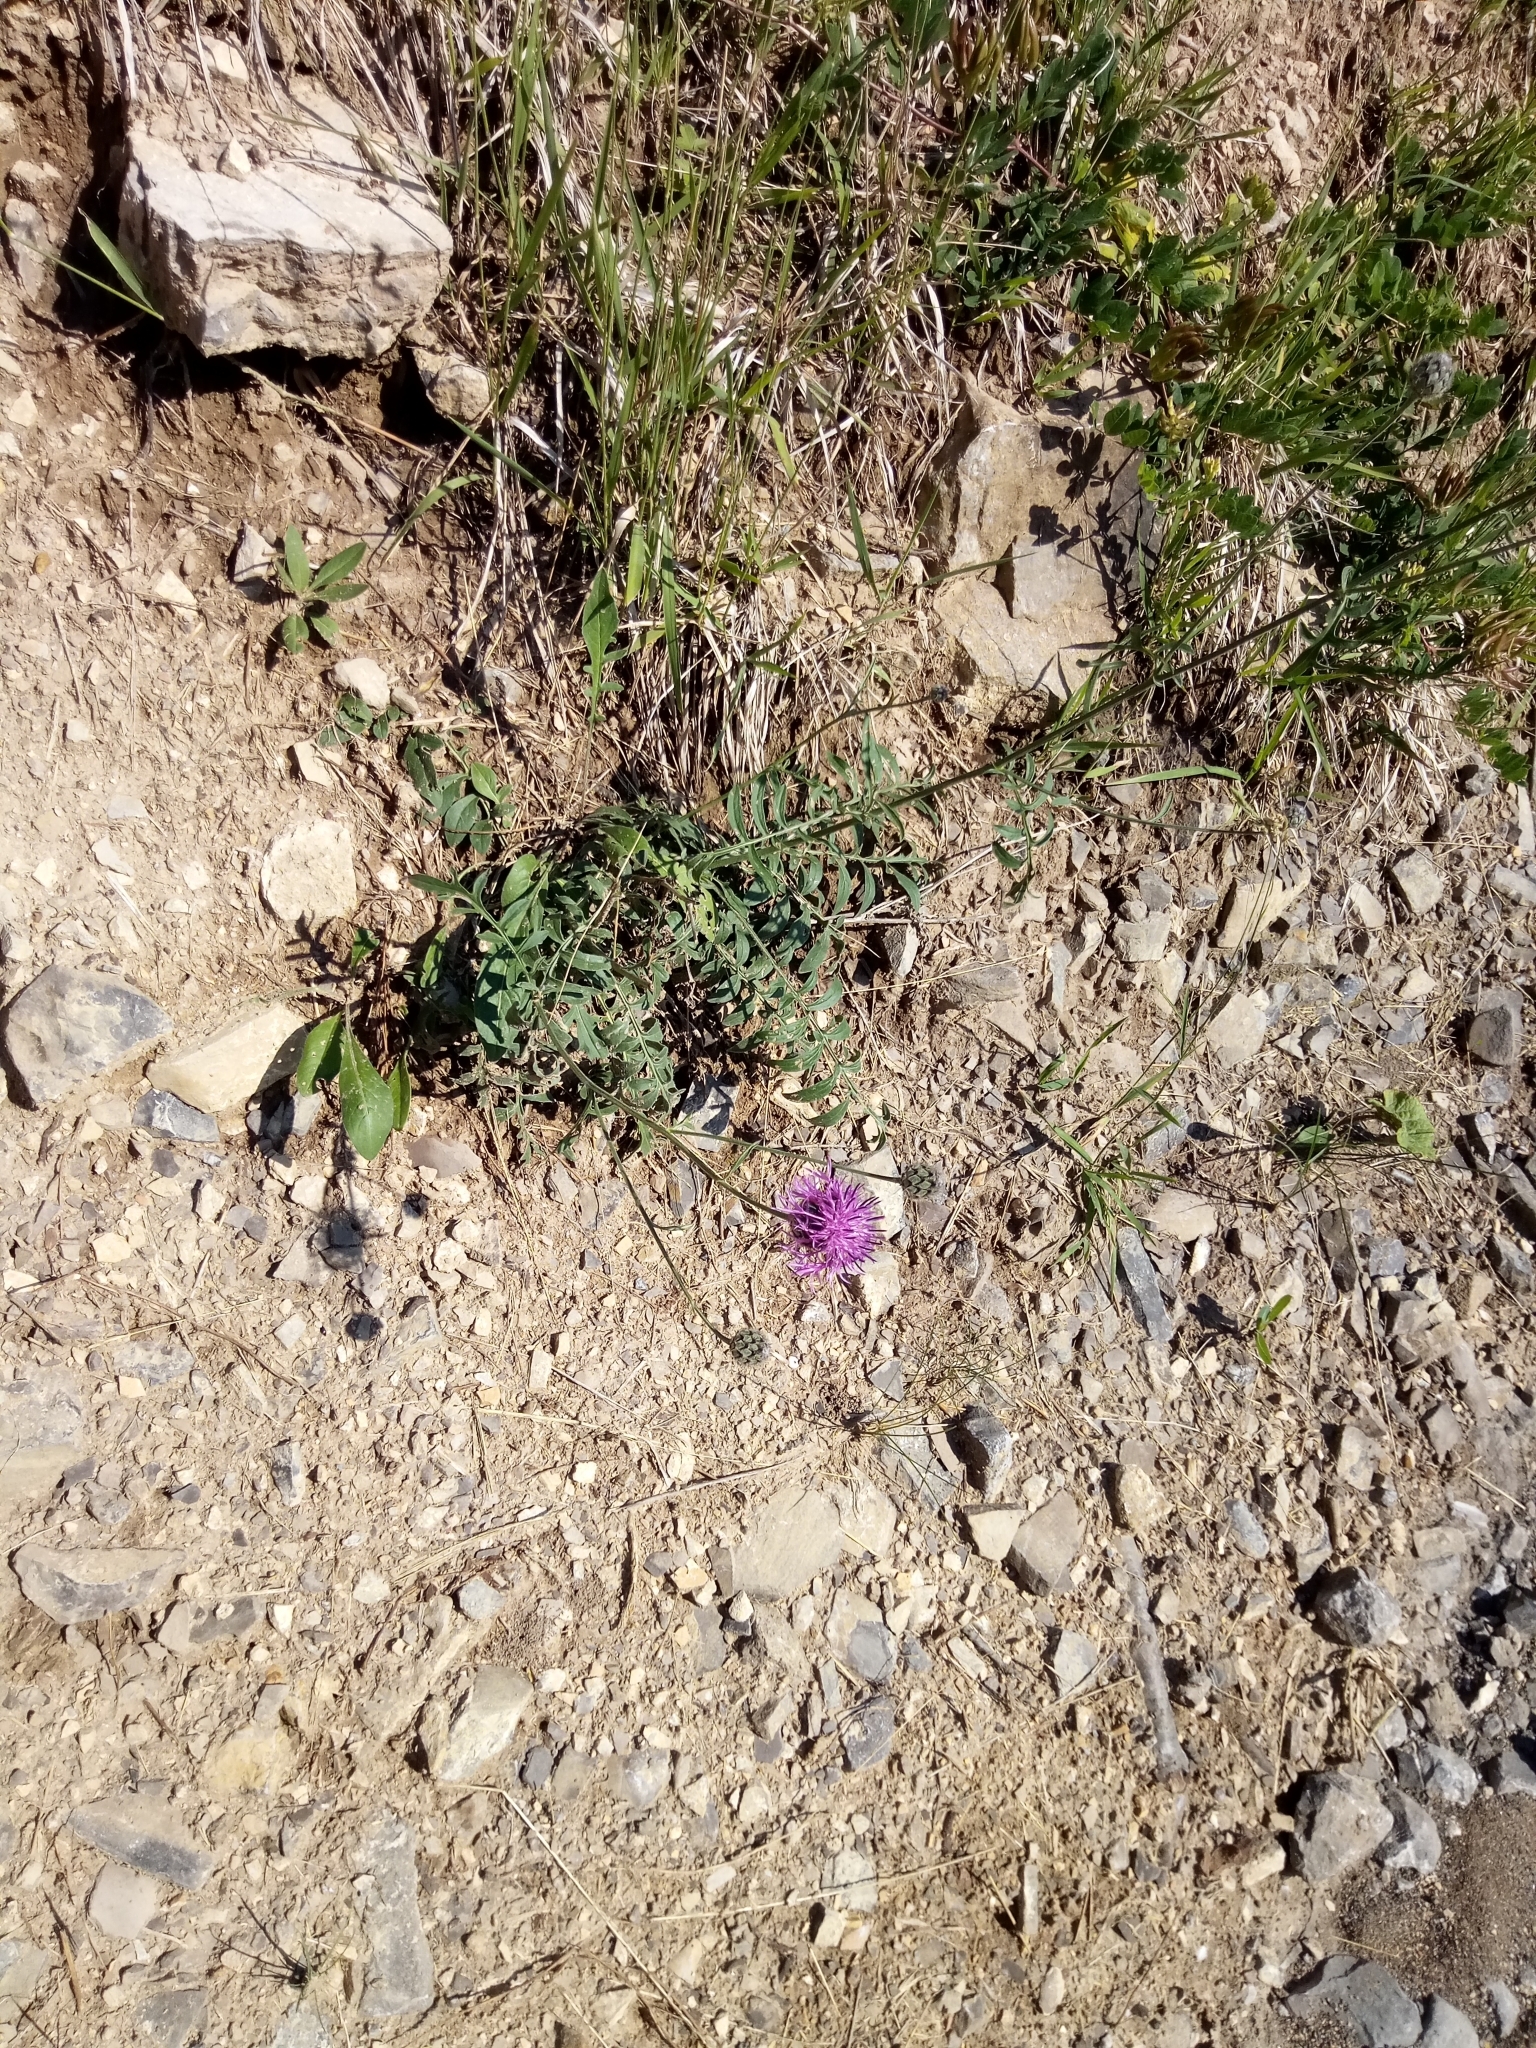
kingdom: Plantae
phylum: Tracheophyta
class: Magnoliopsida
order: Asterales
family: Asteraceae
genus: Centaurea
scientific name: Centaurea scabiosa
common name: Greater knapweed
